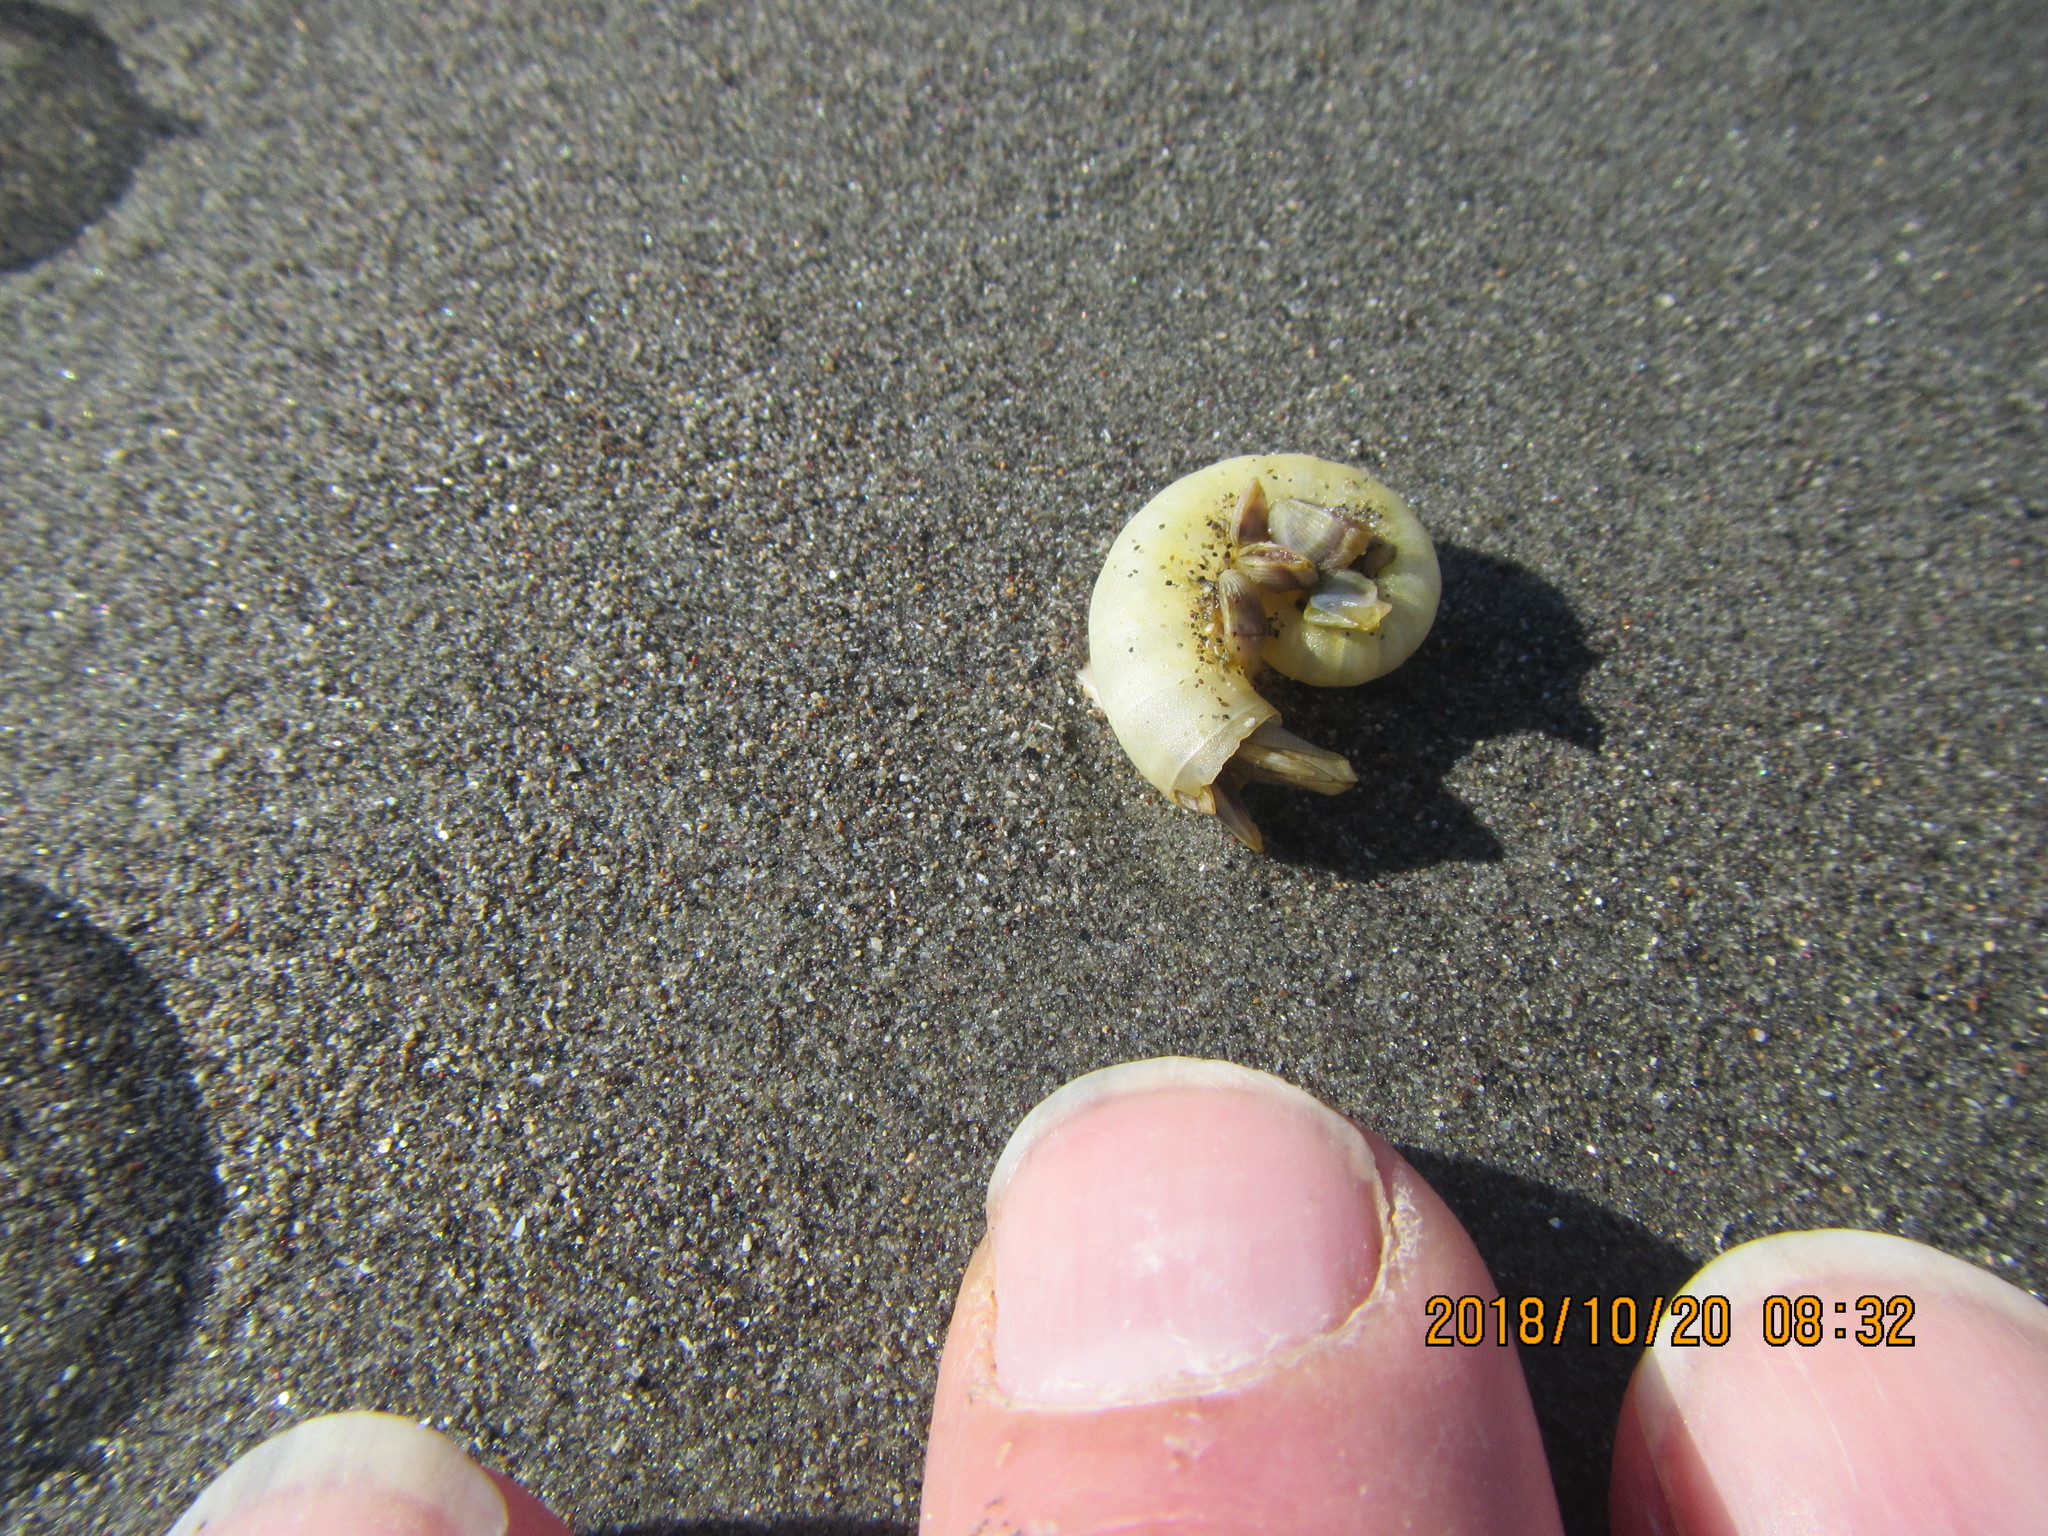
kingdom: Animalia
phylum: Arthropoda
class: Maxillopoda
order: Pedunculata
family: Lepadidae
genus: Lepas
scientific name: Lepas pectinata
